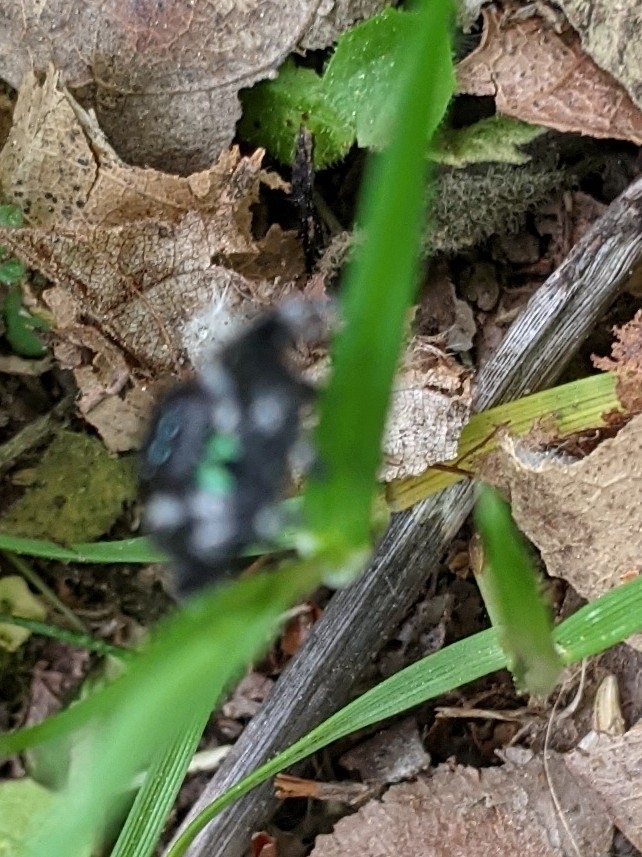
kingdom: Animalia
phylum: Arthropoda
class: Arachnida
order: Araneae
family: Salticidae
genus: Phidippus
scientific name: Phidippus audax
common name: Bold jumper
